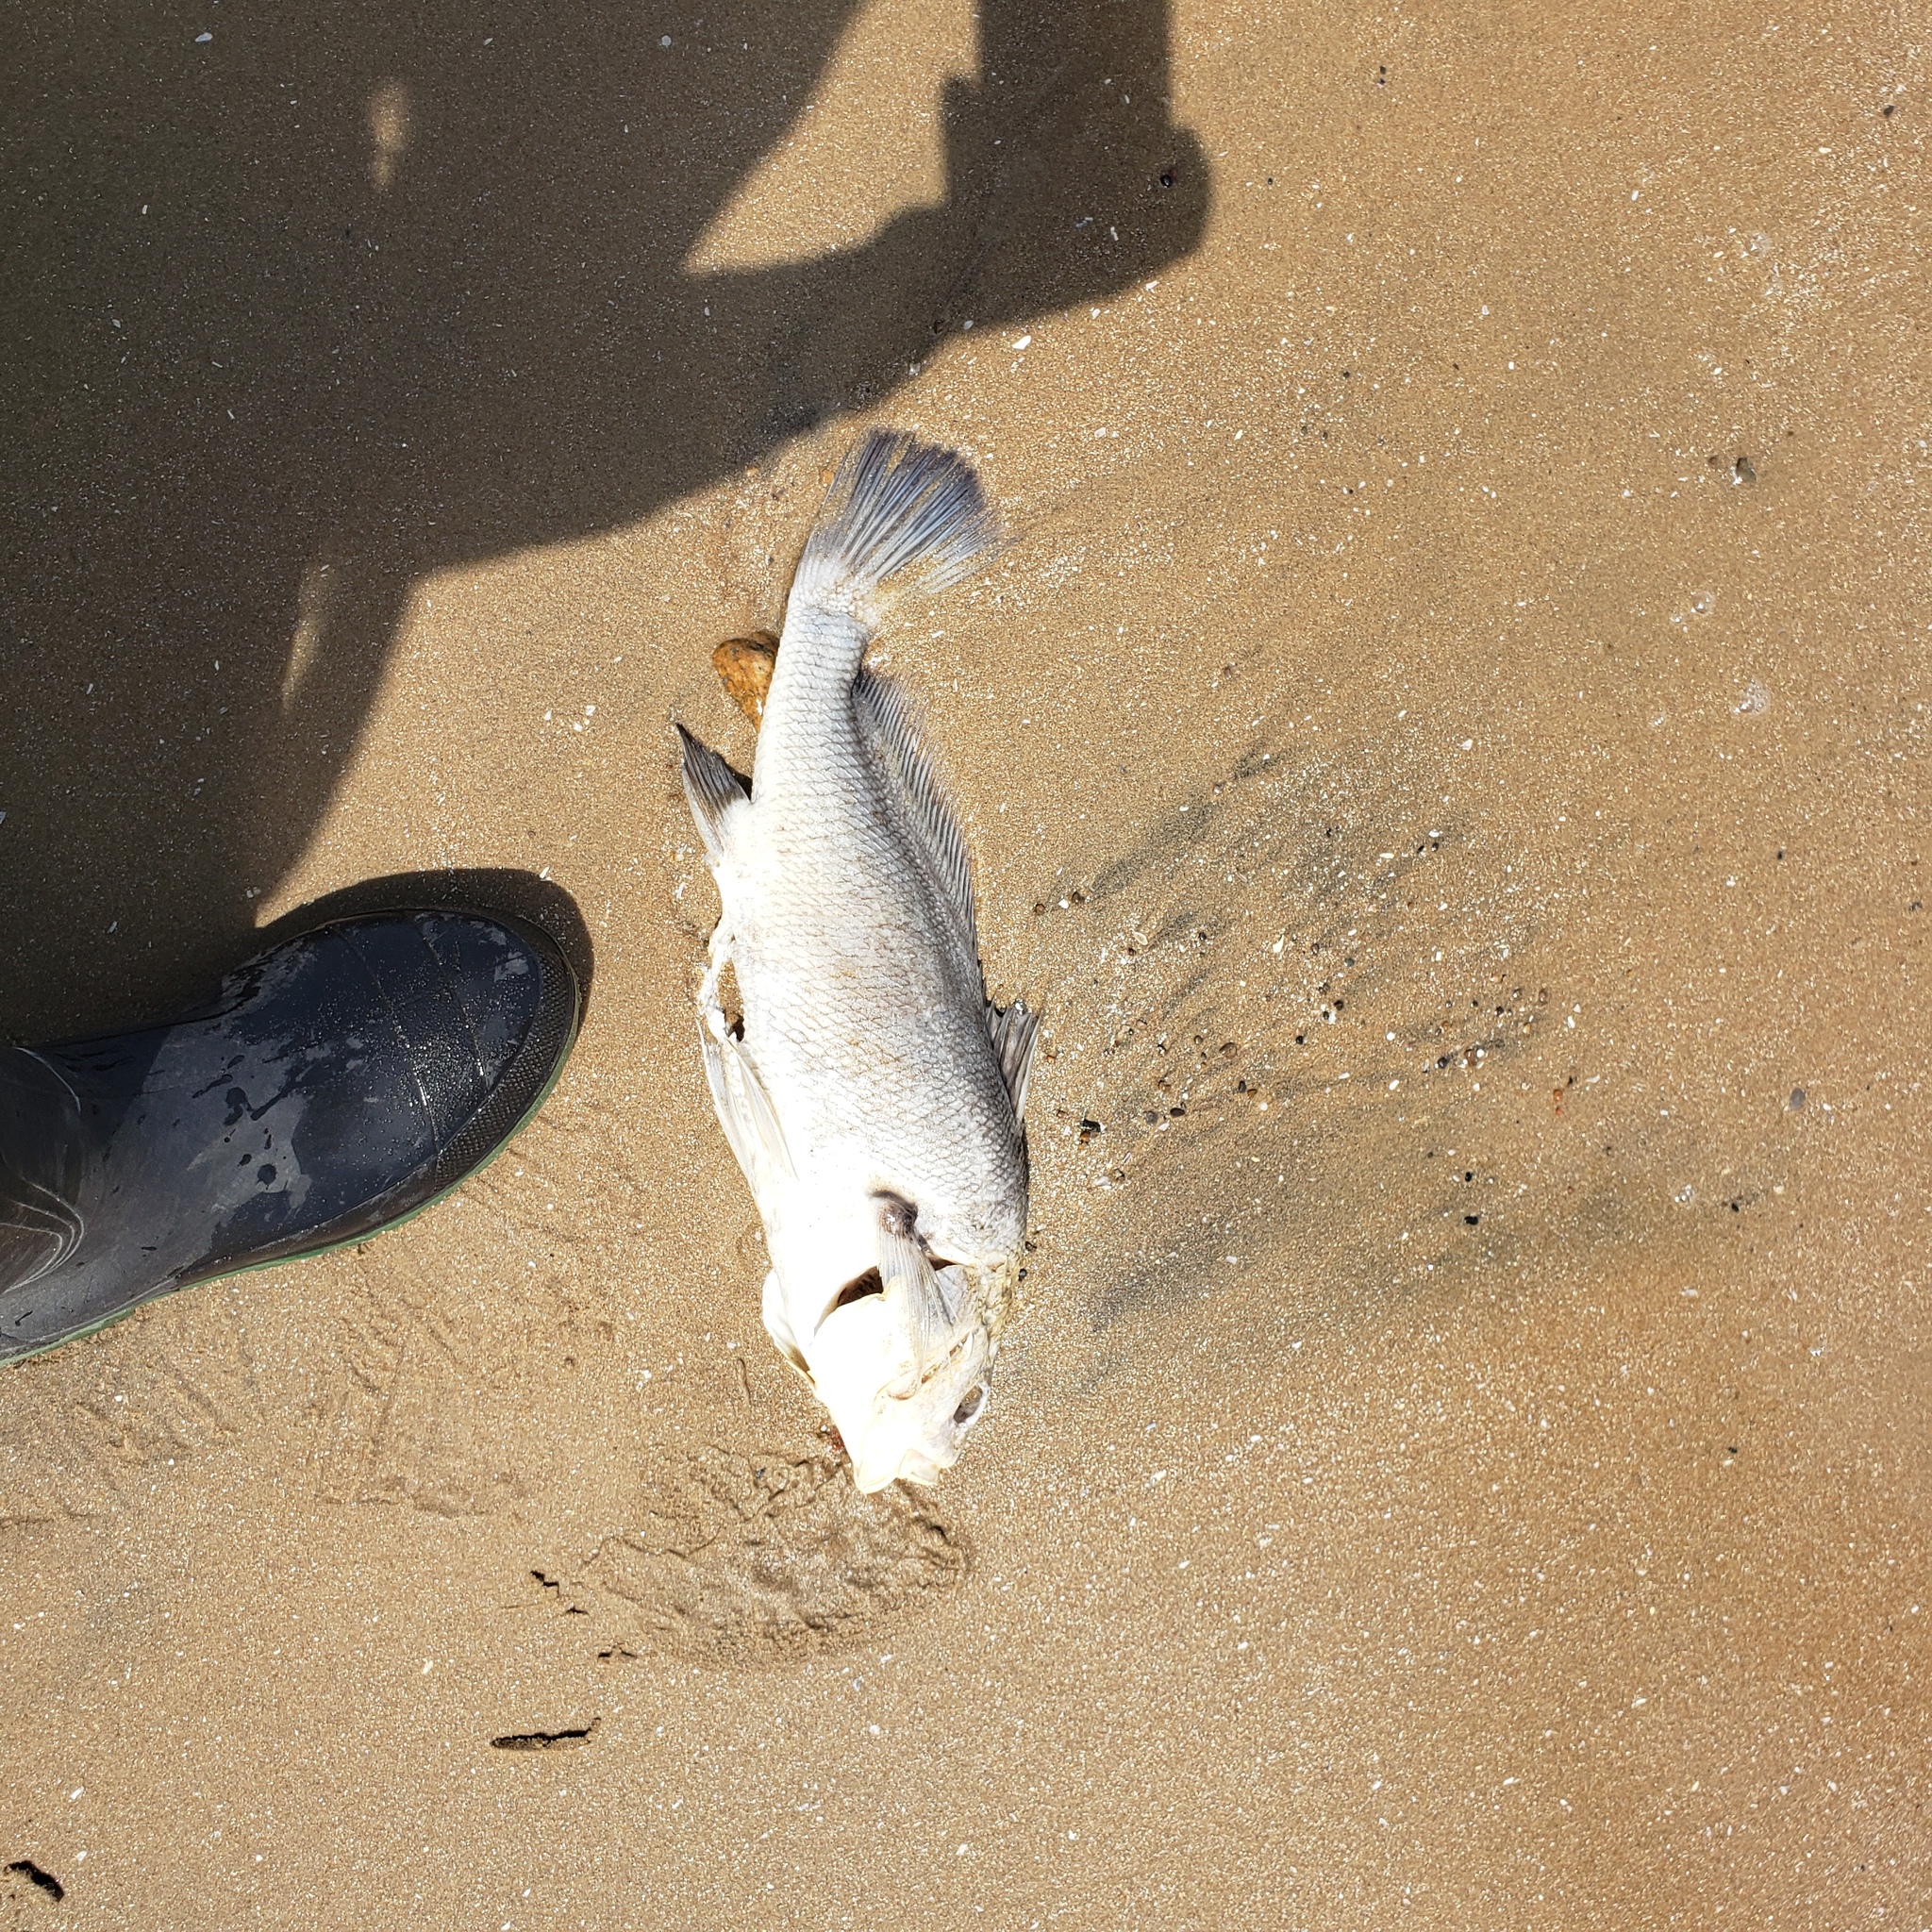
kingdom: Animalia
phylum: Chordata
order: Perciformes
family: Sciaenidae
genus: Aplodinotus
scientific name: Aplodinotus grunniens
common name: Freshwater drum
